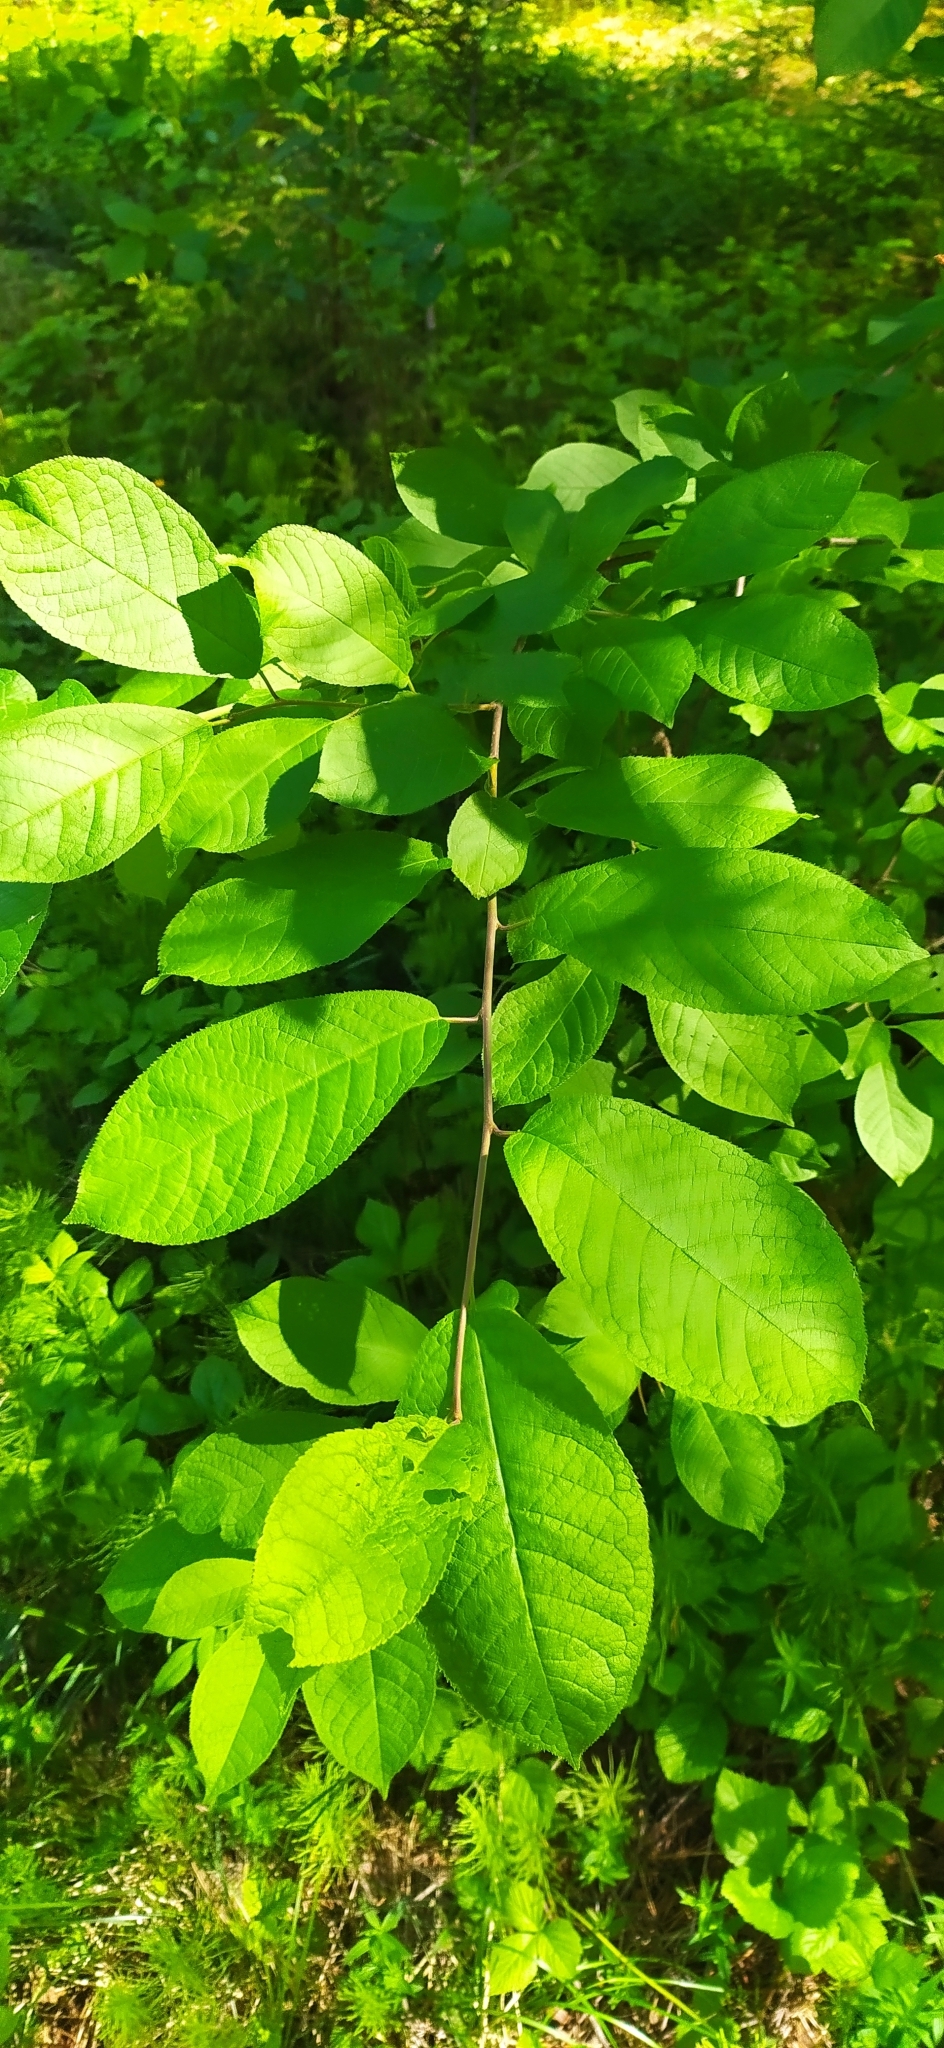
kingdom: Plantae
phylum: Tracheophyta
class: Magnoliopsida
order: Rosales
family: Rosaceae
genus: Prunus
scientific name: Prunus padus
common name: Bird cherry
